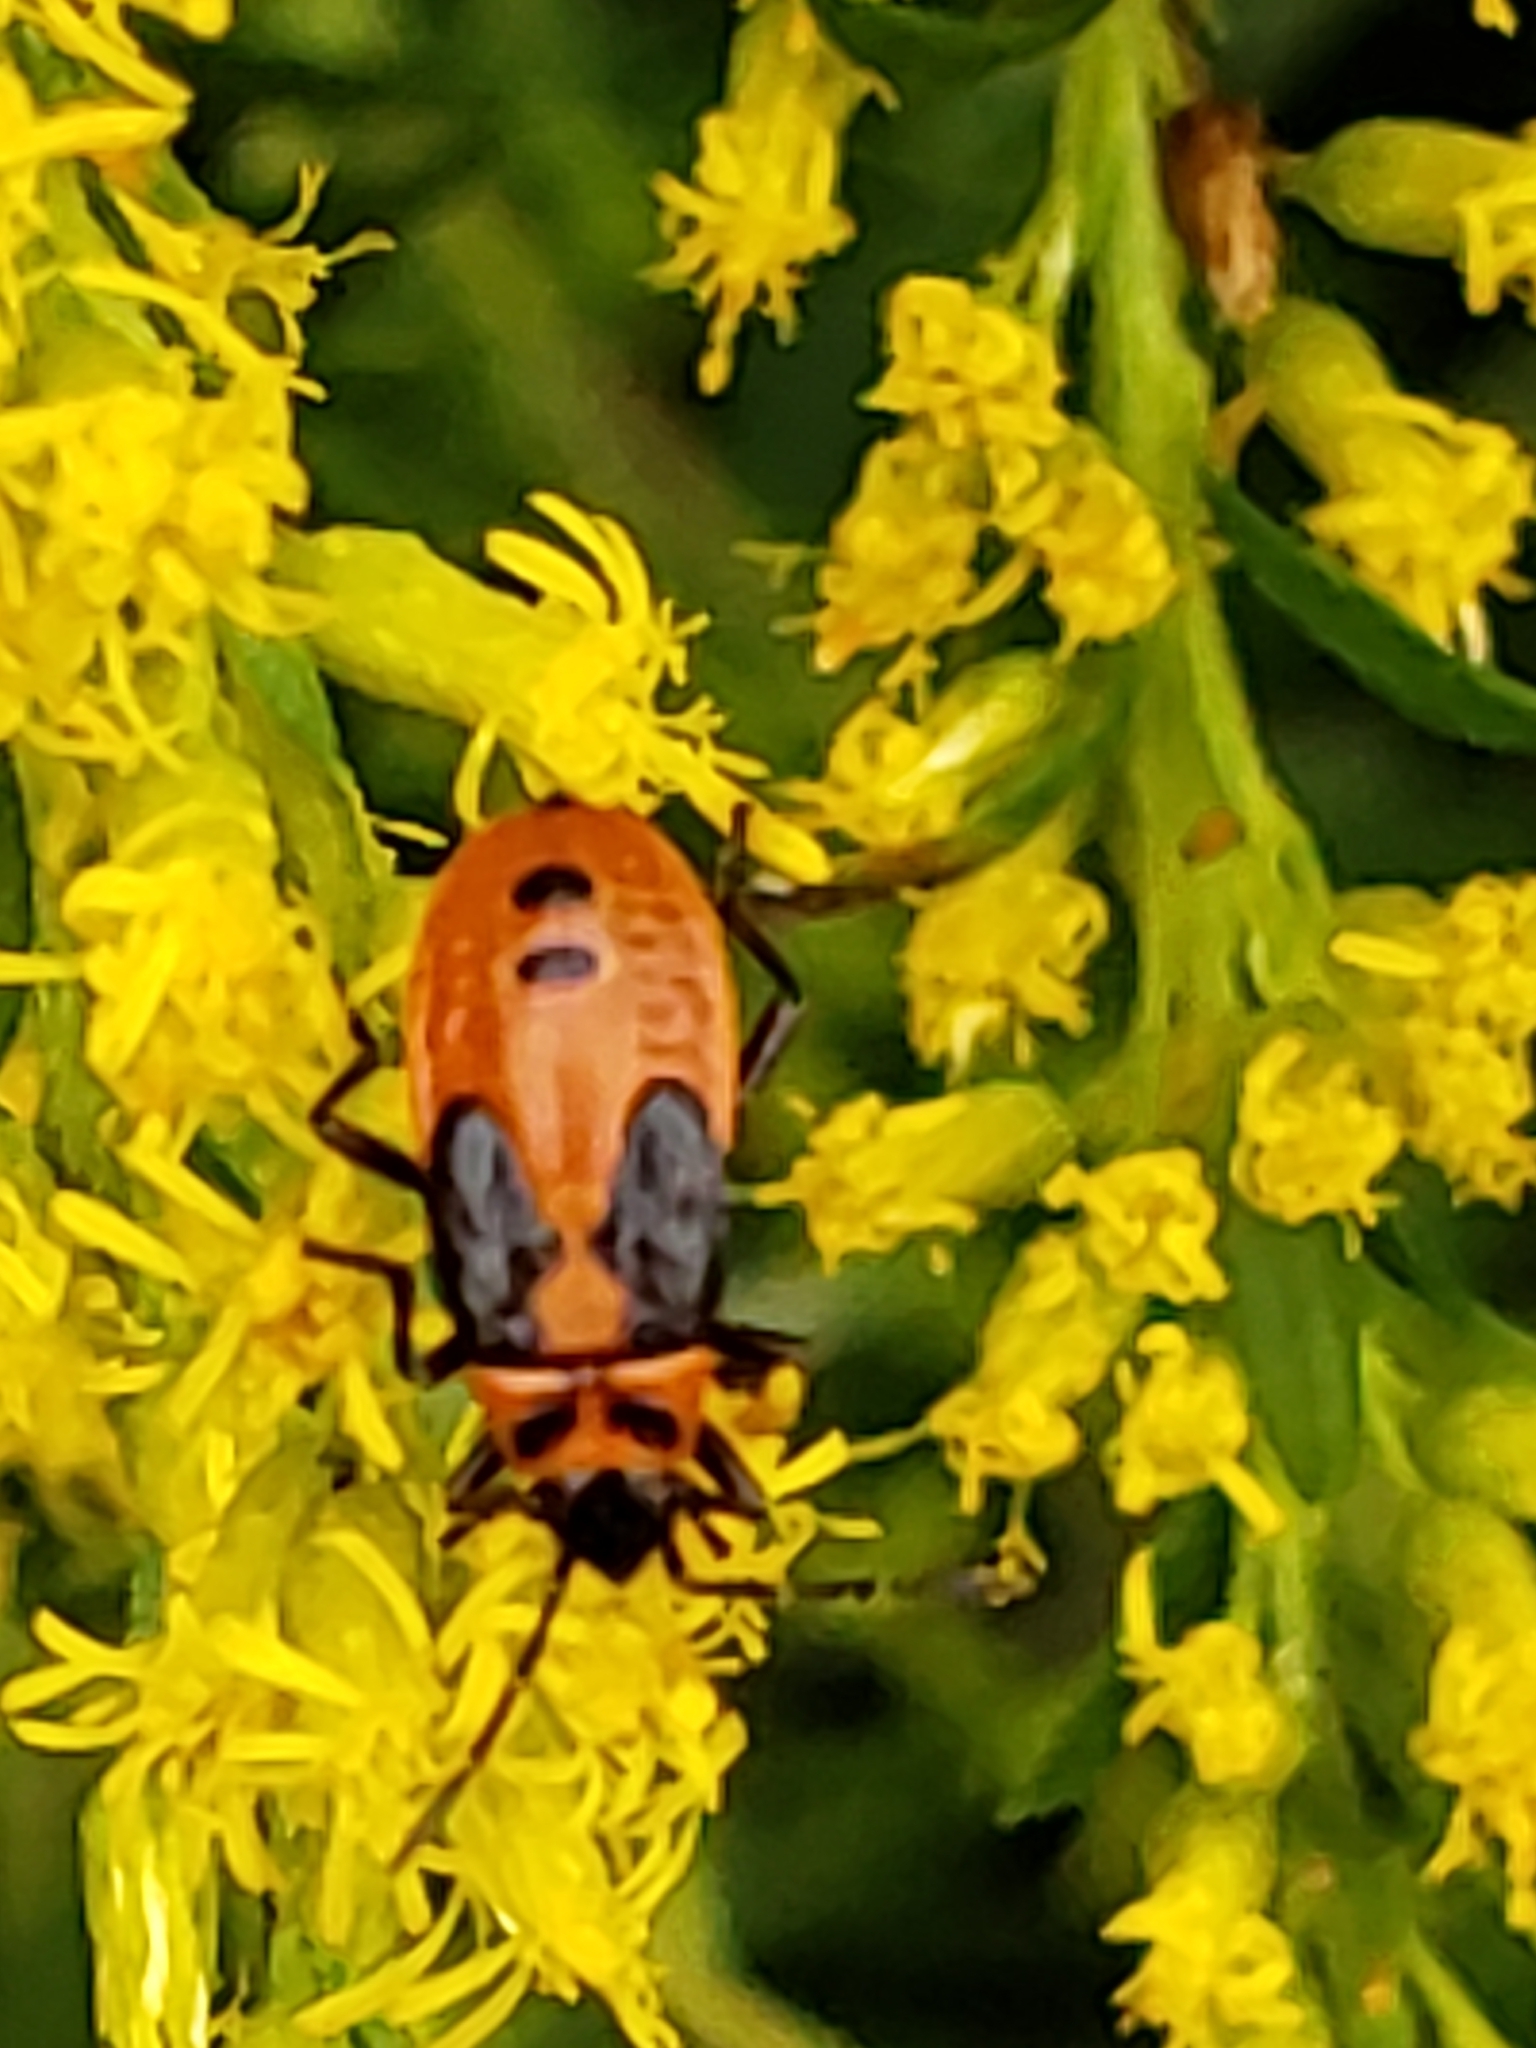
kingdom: Animalia
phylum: Arthropoda
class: Insecta
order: Hemiptera
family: Lygaeidae
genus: Lygaeus
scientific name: Lygaeus turcicus
